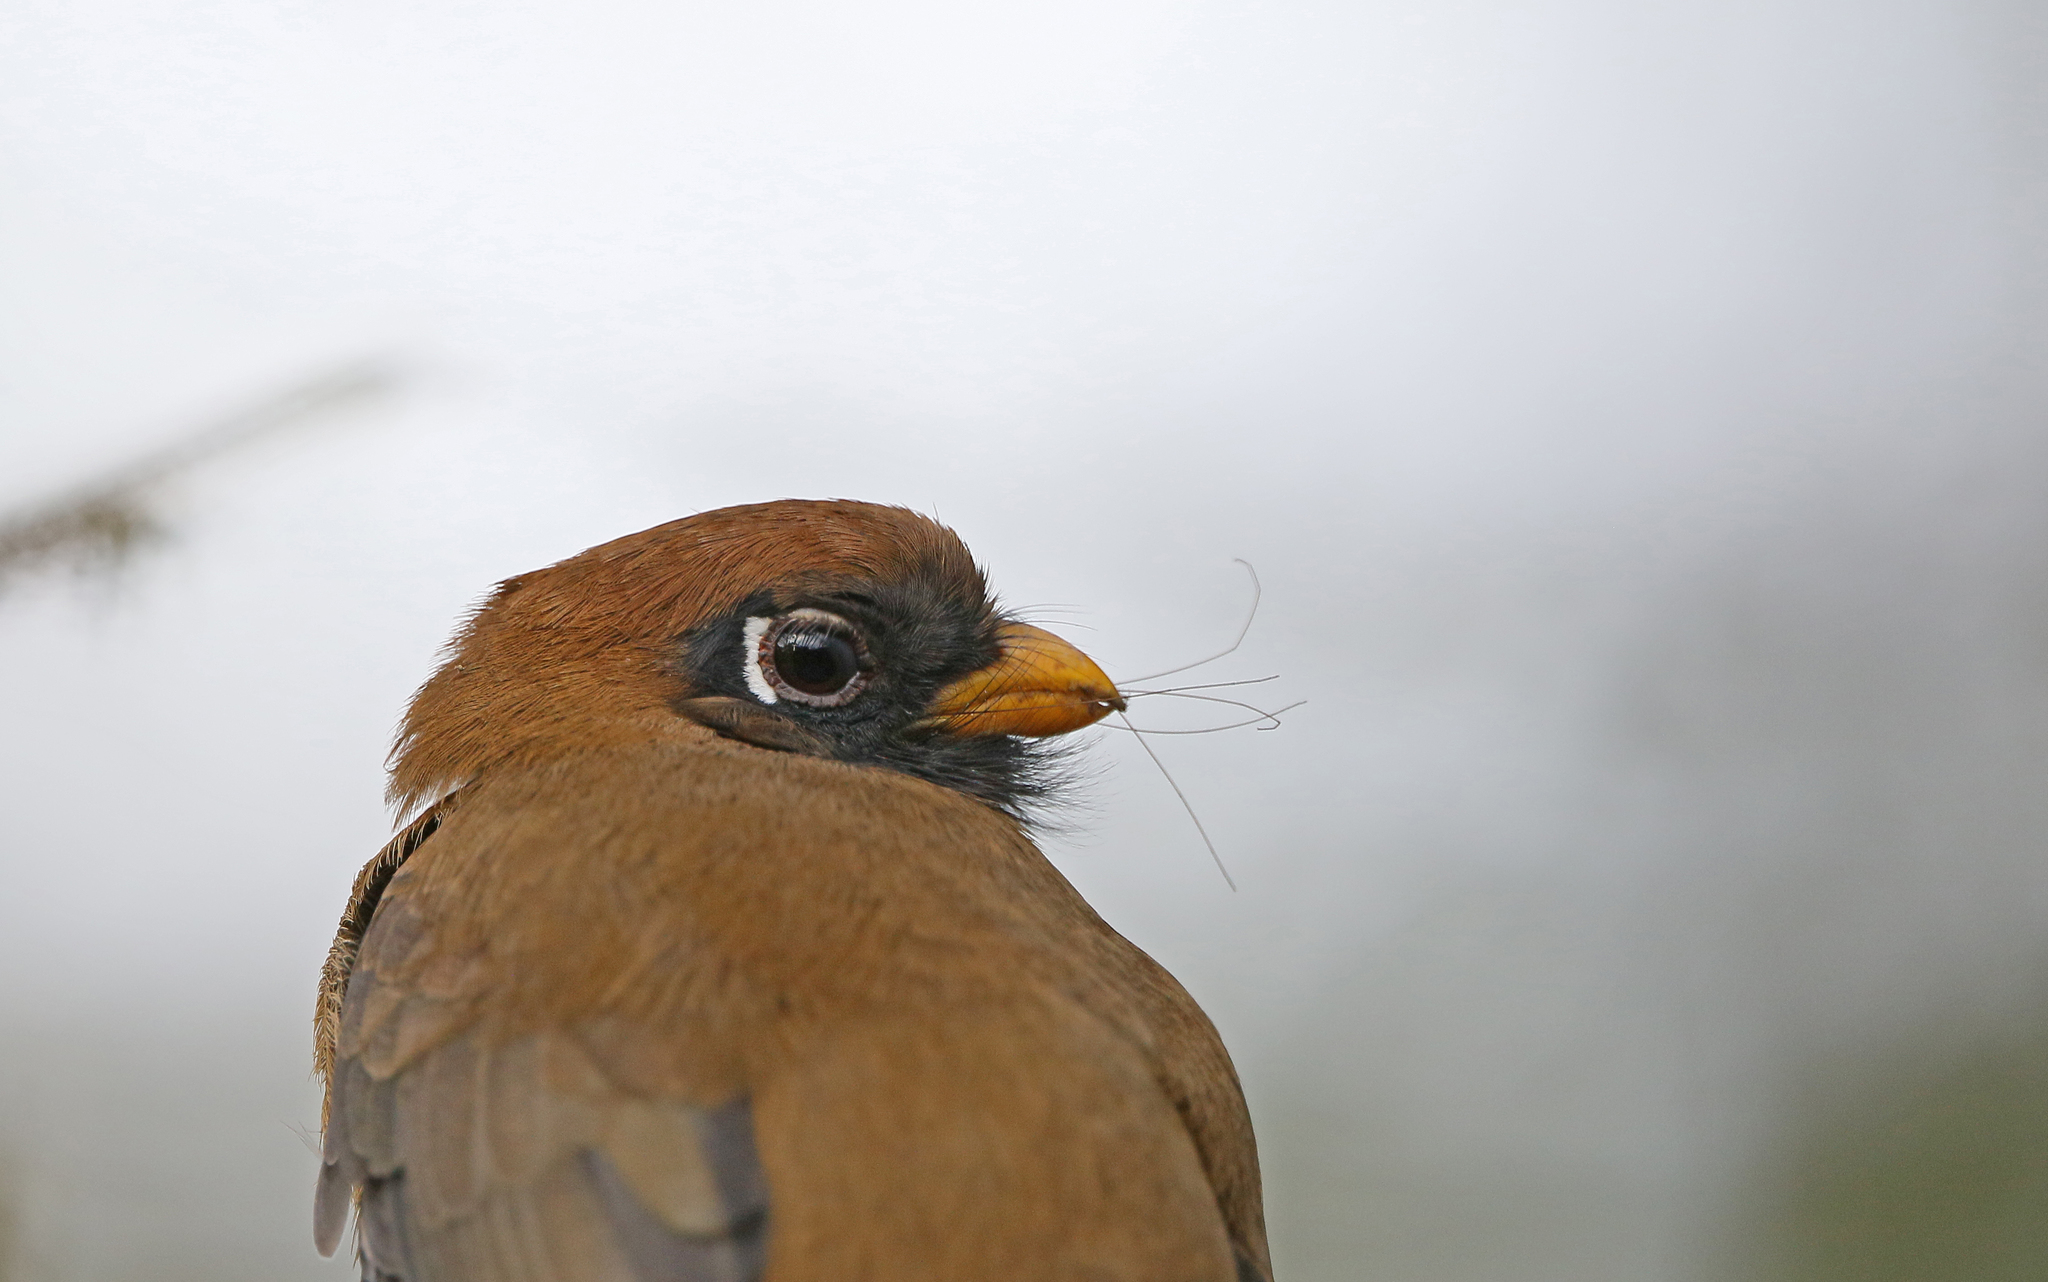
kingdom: Animalia
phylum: Chordata
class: Aves
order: Trogoniformes
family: Trogonidae
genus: Trogon
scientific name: Trogon personatus
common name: Masked trogon
